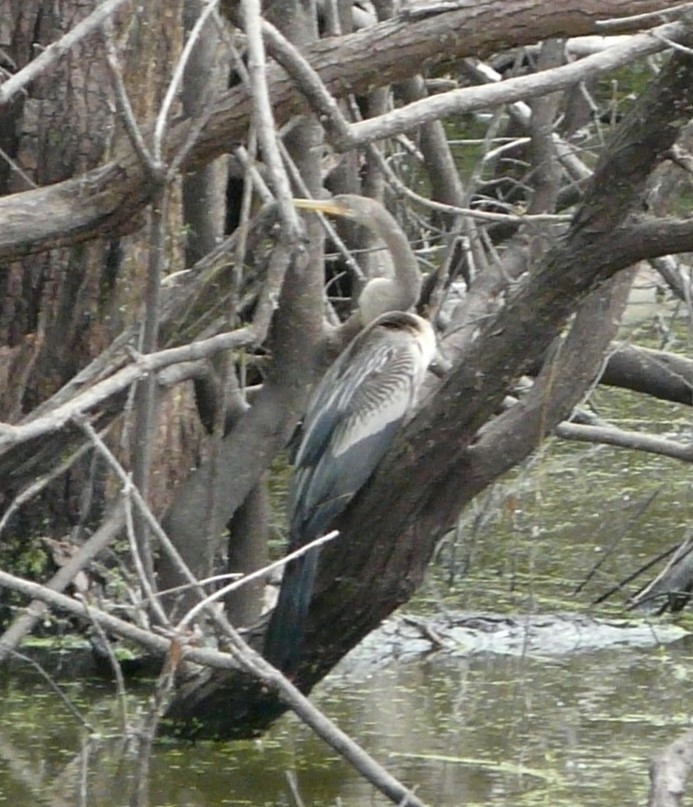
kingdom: Animalia
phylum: Chordata
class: Aves
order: Suliformes
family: Anhingidae
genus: Anhinga
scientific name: Anhinga anhinga
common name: Anhinga
